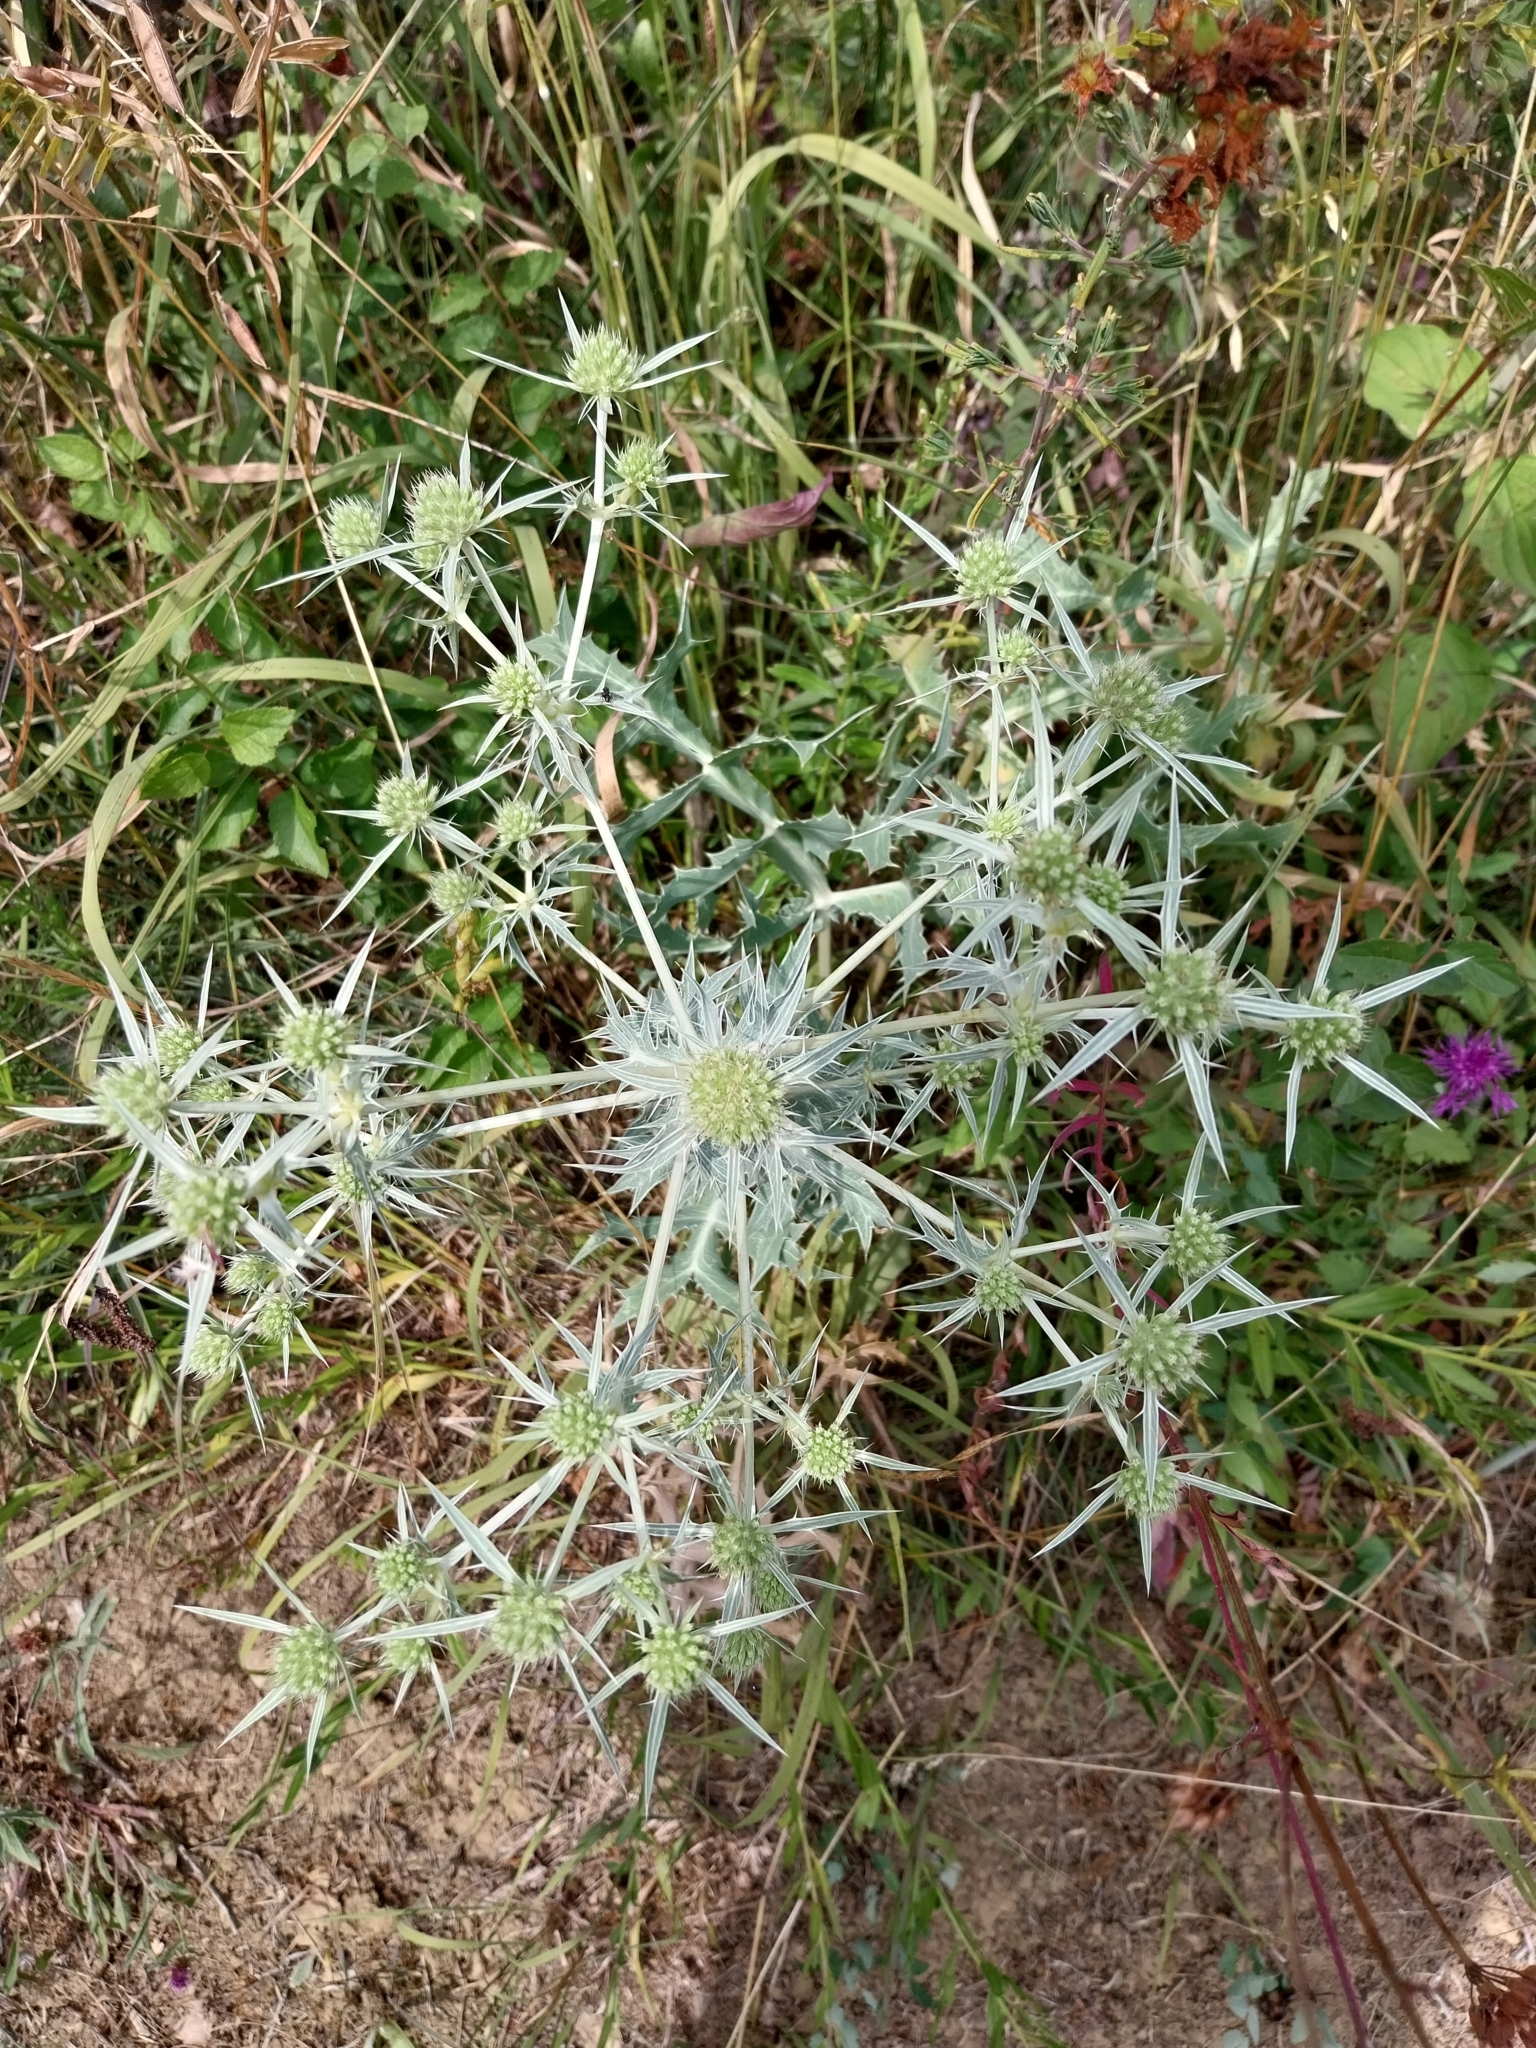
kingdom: Plantae
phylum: Tracheophyta
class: Magnoliopsida
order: Apiales
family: Apiaceae
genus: Eryngium
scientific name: Eryngium campestre
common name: Field eryngo
